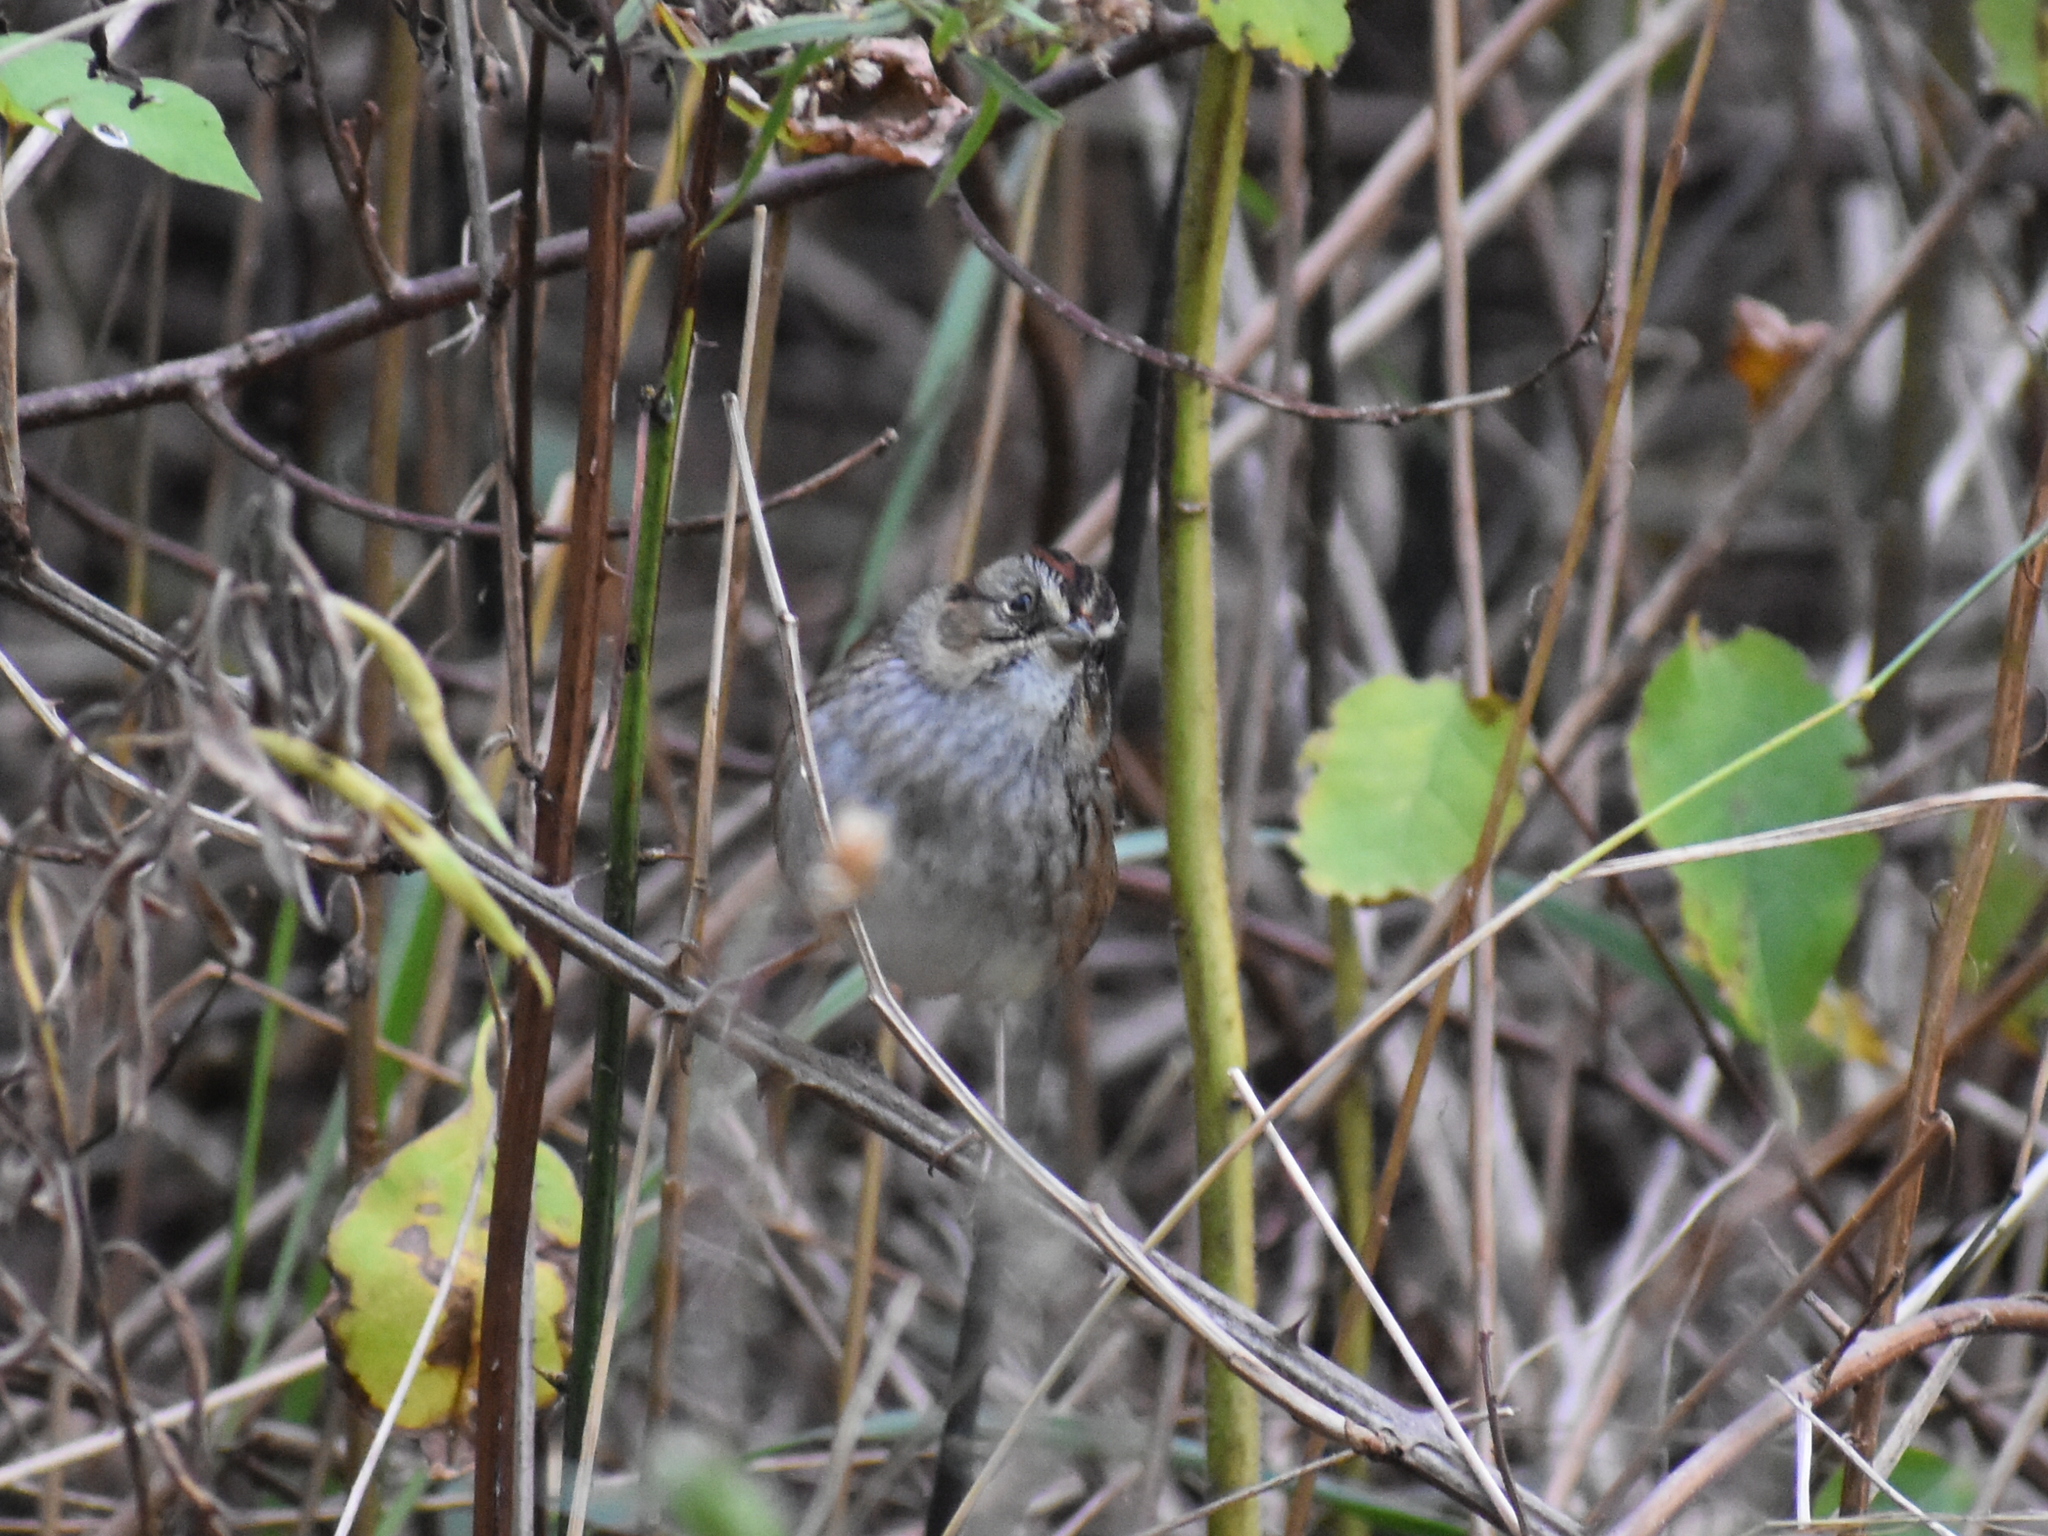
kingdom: Animalia
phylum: Chordata
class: Aves
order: Passeriformes
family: Passerellidae
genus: Melospiza
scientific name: Melospiza georgiana
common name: Swamp sparrow
